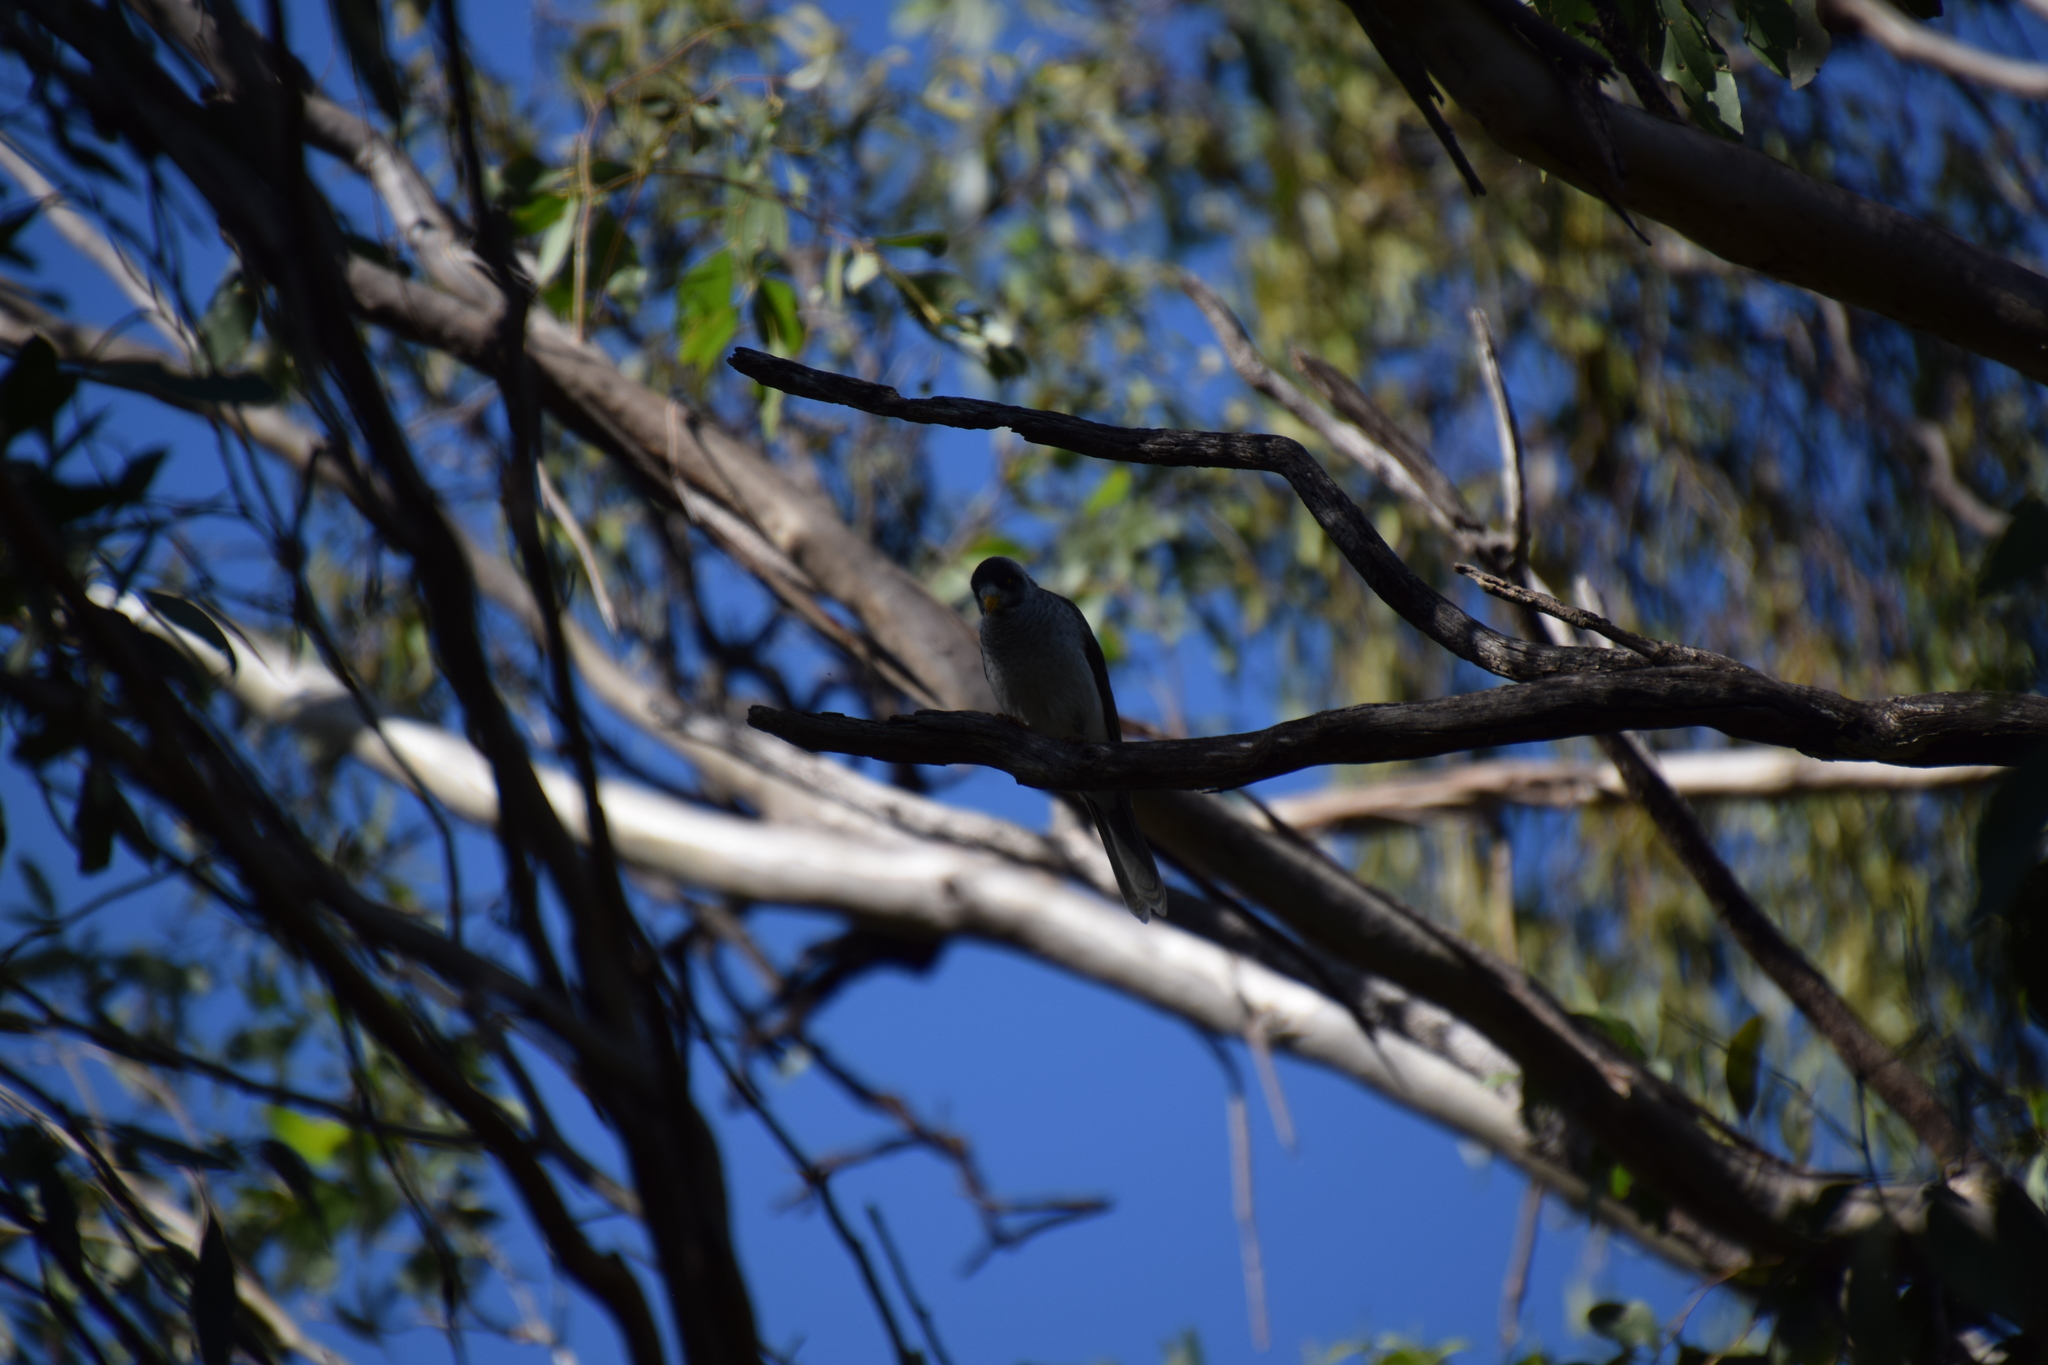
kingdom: Animalia
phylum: Chordata
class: Aves
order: Passeriformes
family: Meliphagidae
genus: Manorina
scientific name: Manorina melanocephala
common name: Noisy miner
